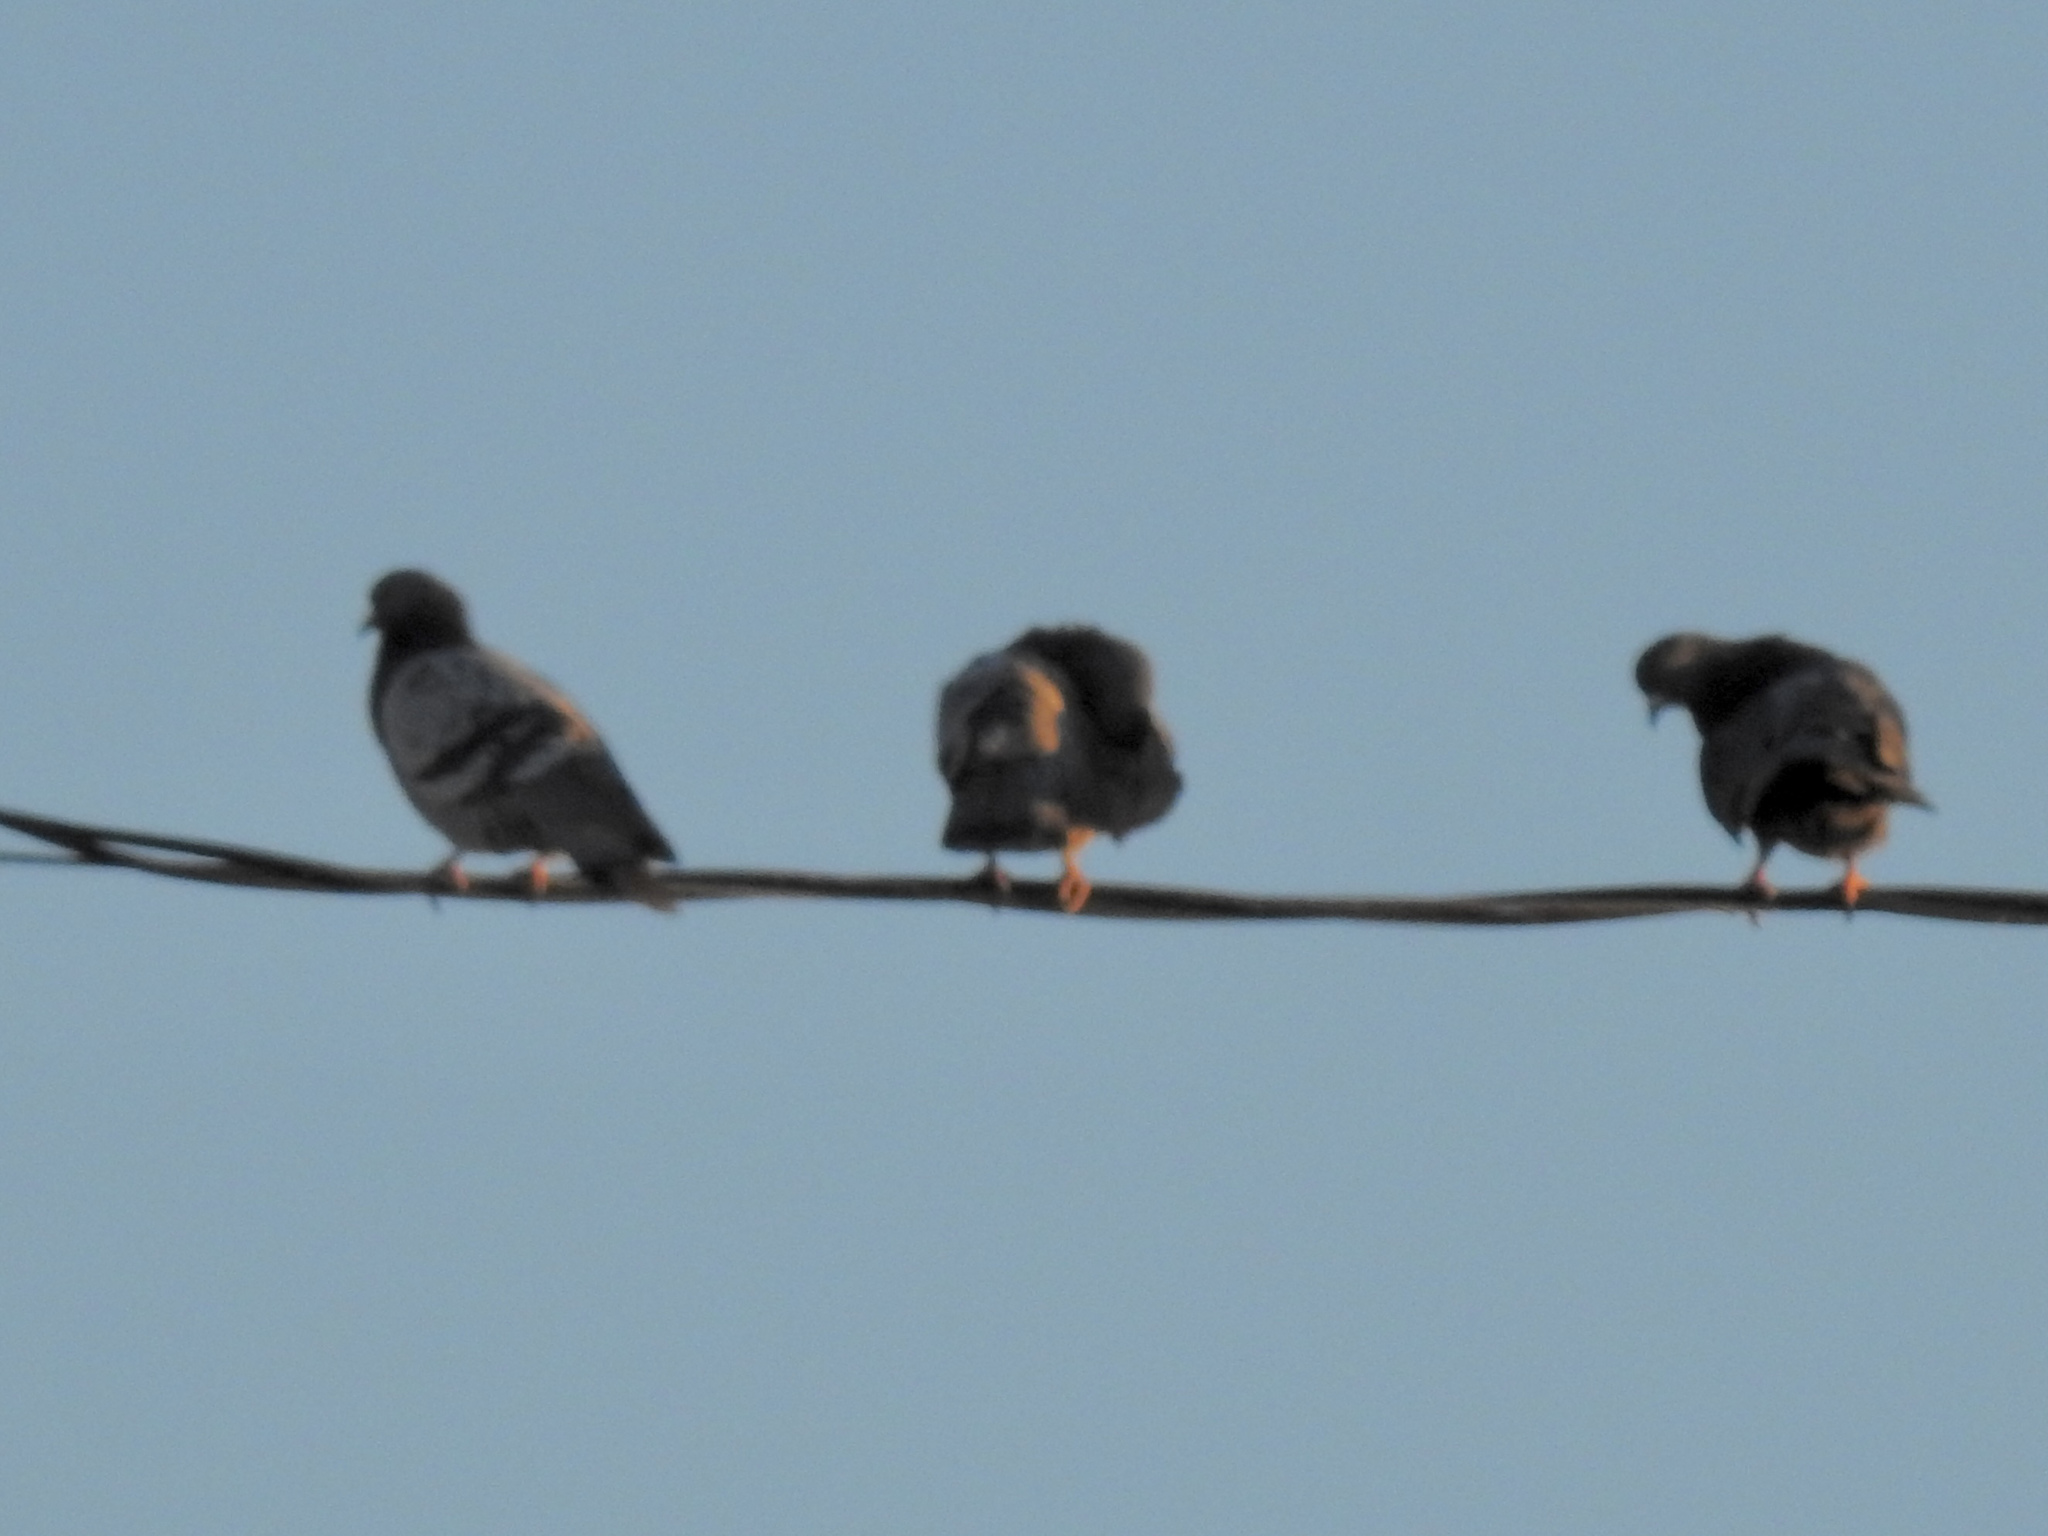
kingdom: Animalia
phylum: Chordata
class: Aves
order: Columbiformes
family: Columbidae
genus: Columba
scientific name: Columba livia
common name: Rock pigeon
